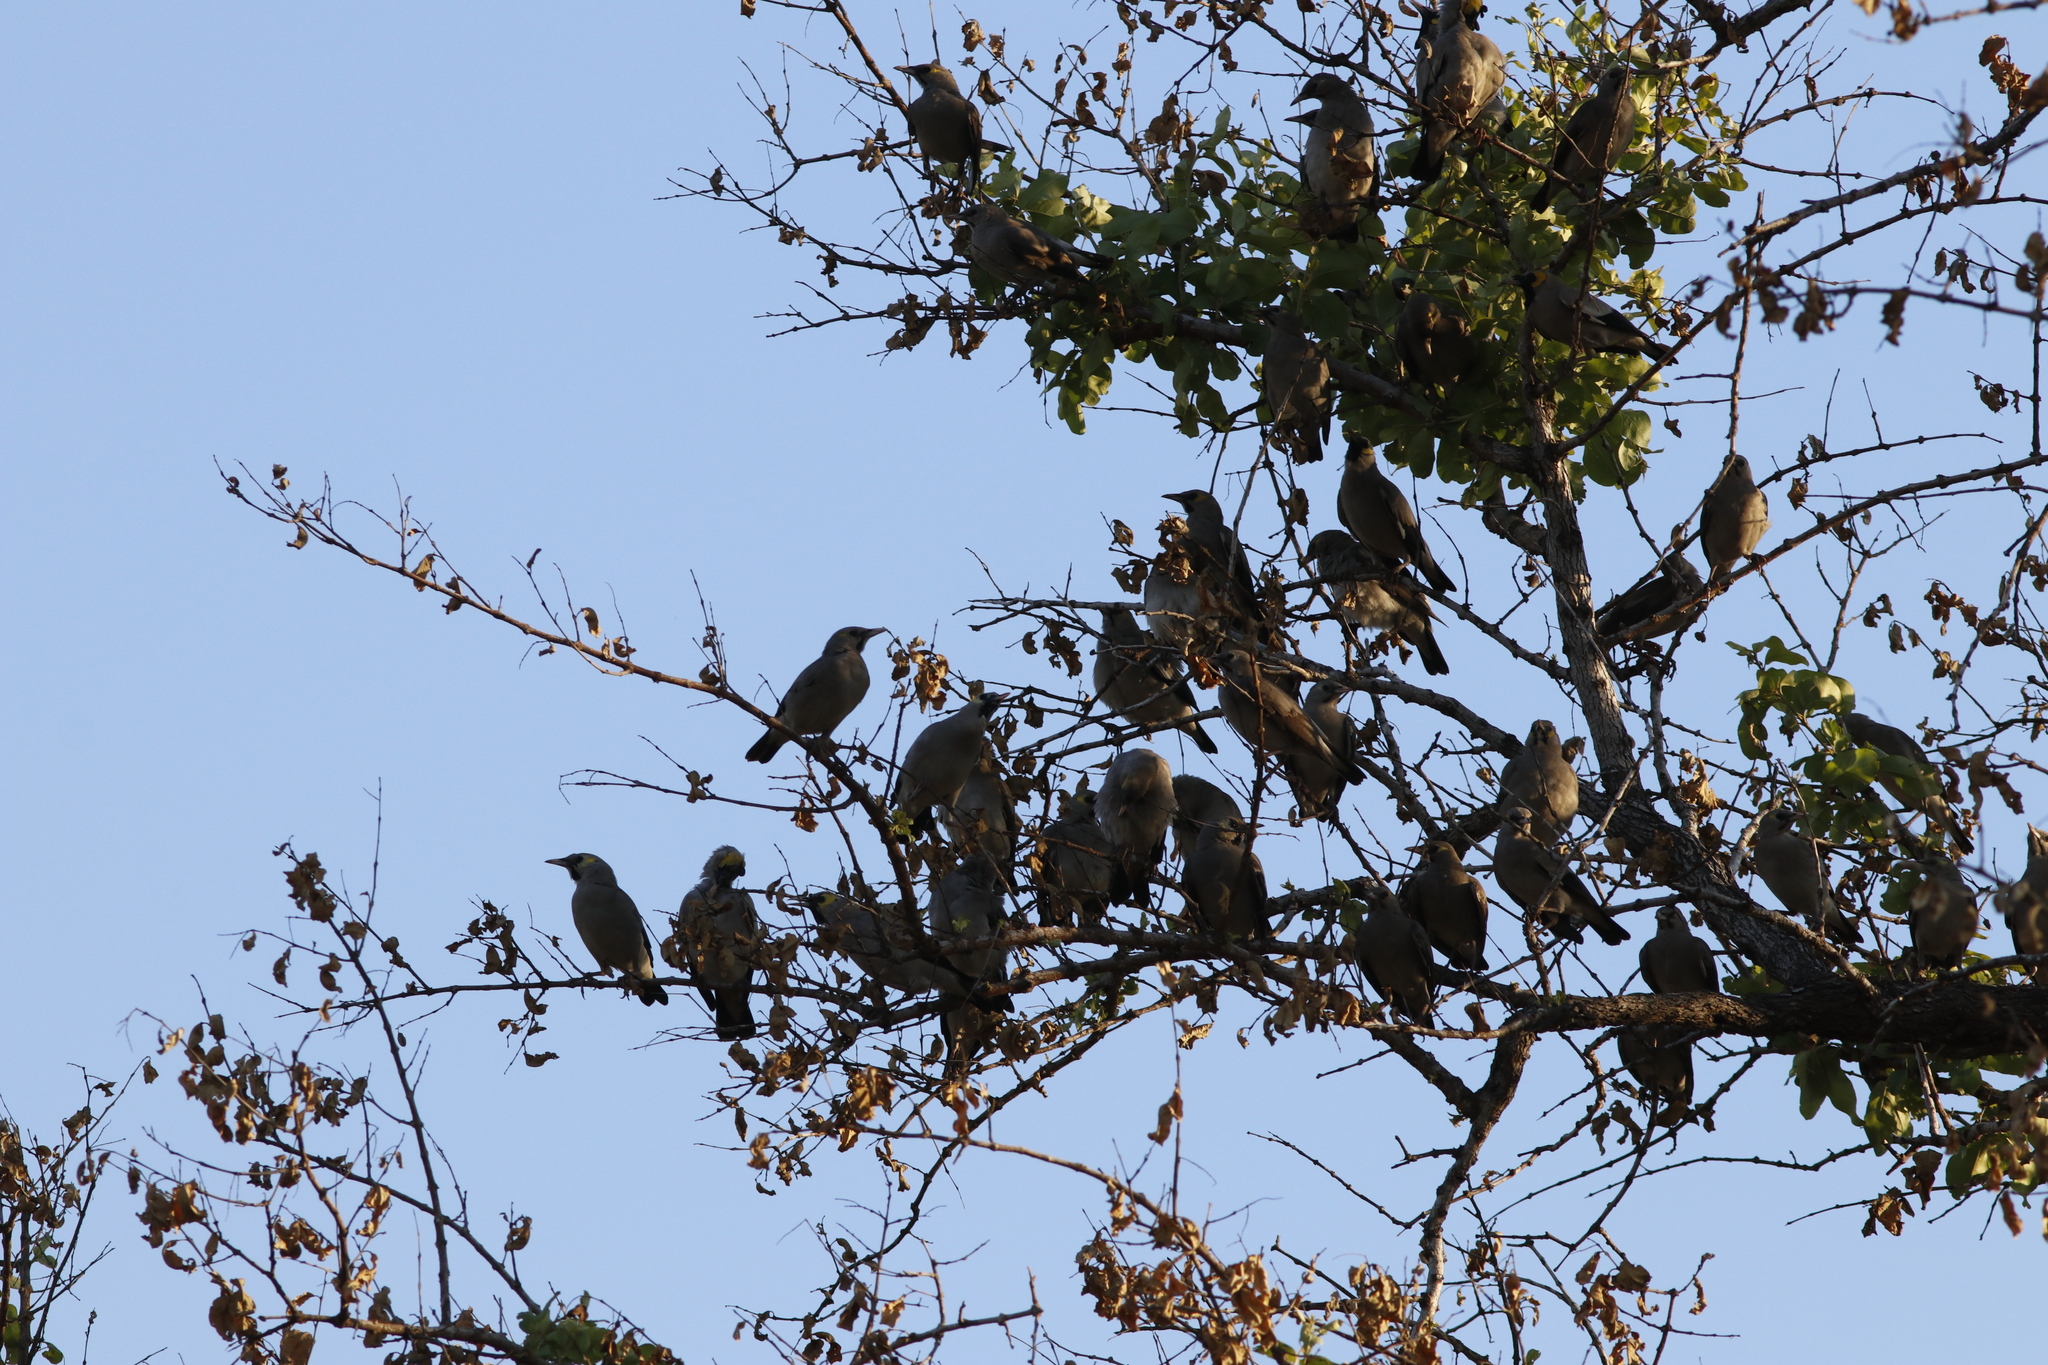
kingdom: Animalia
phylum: Chordata
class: Aves
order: Passeriformes
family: Sturnidae
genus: Creatophora
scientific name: Creatophora cinerea
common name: Wattled starling
